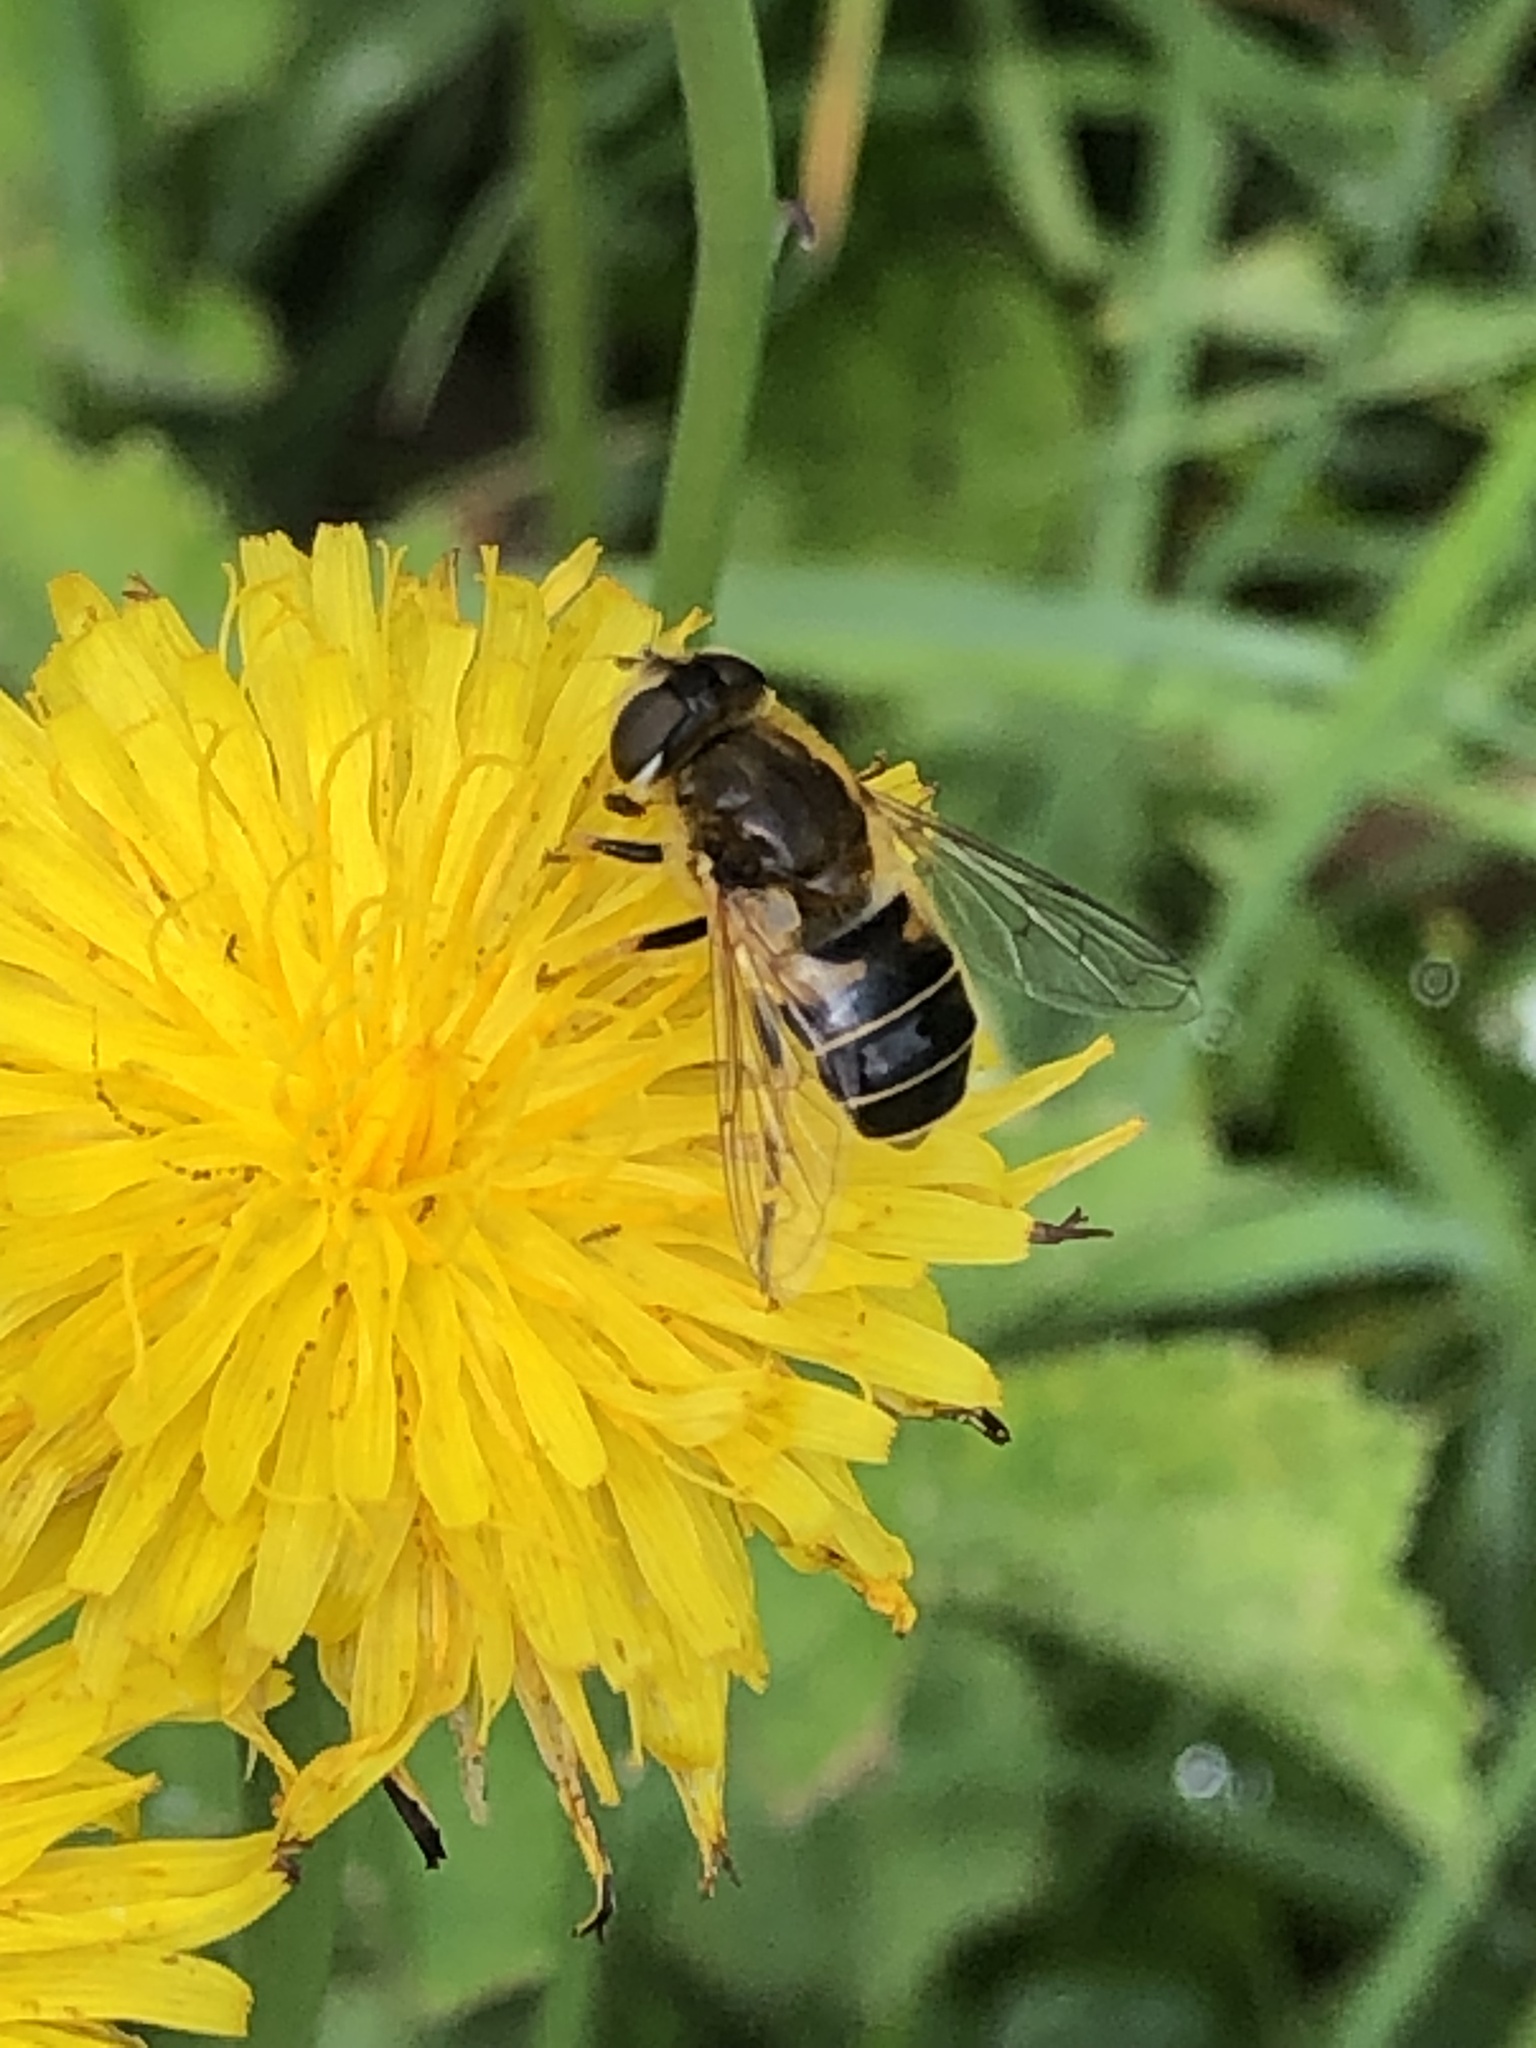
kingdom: Animalia
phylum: Arthropoda
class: Insecta
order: Diptera
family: Syrphidae
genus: Eristalis
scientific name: Eristalis nemorum
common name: Orange-spined drone fly
